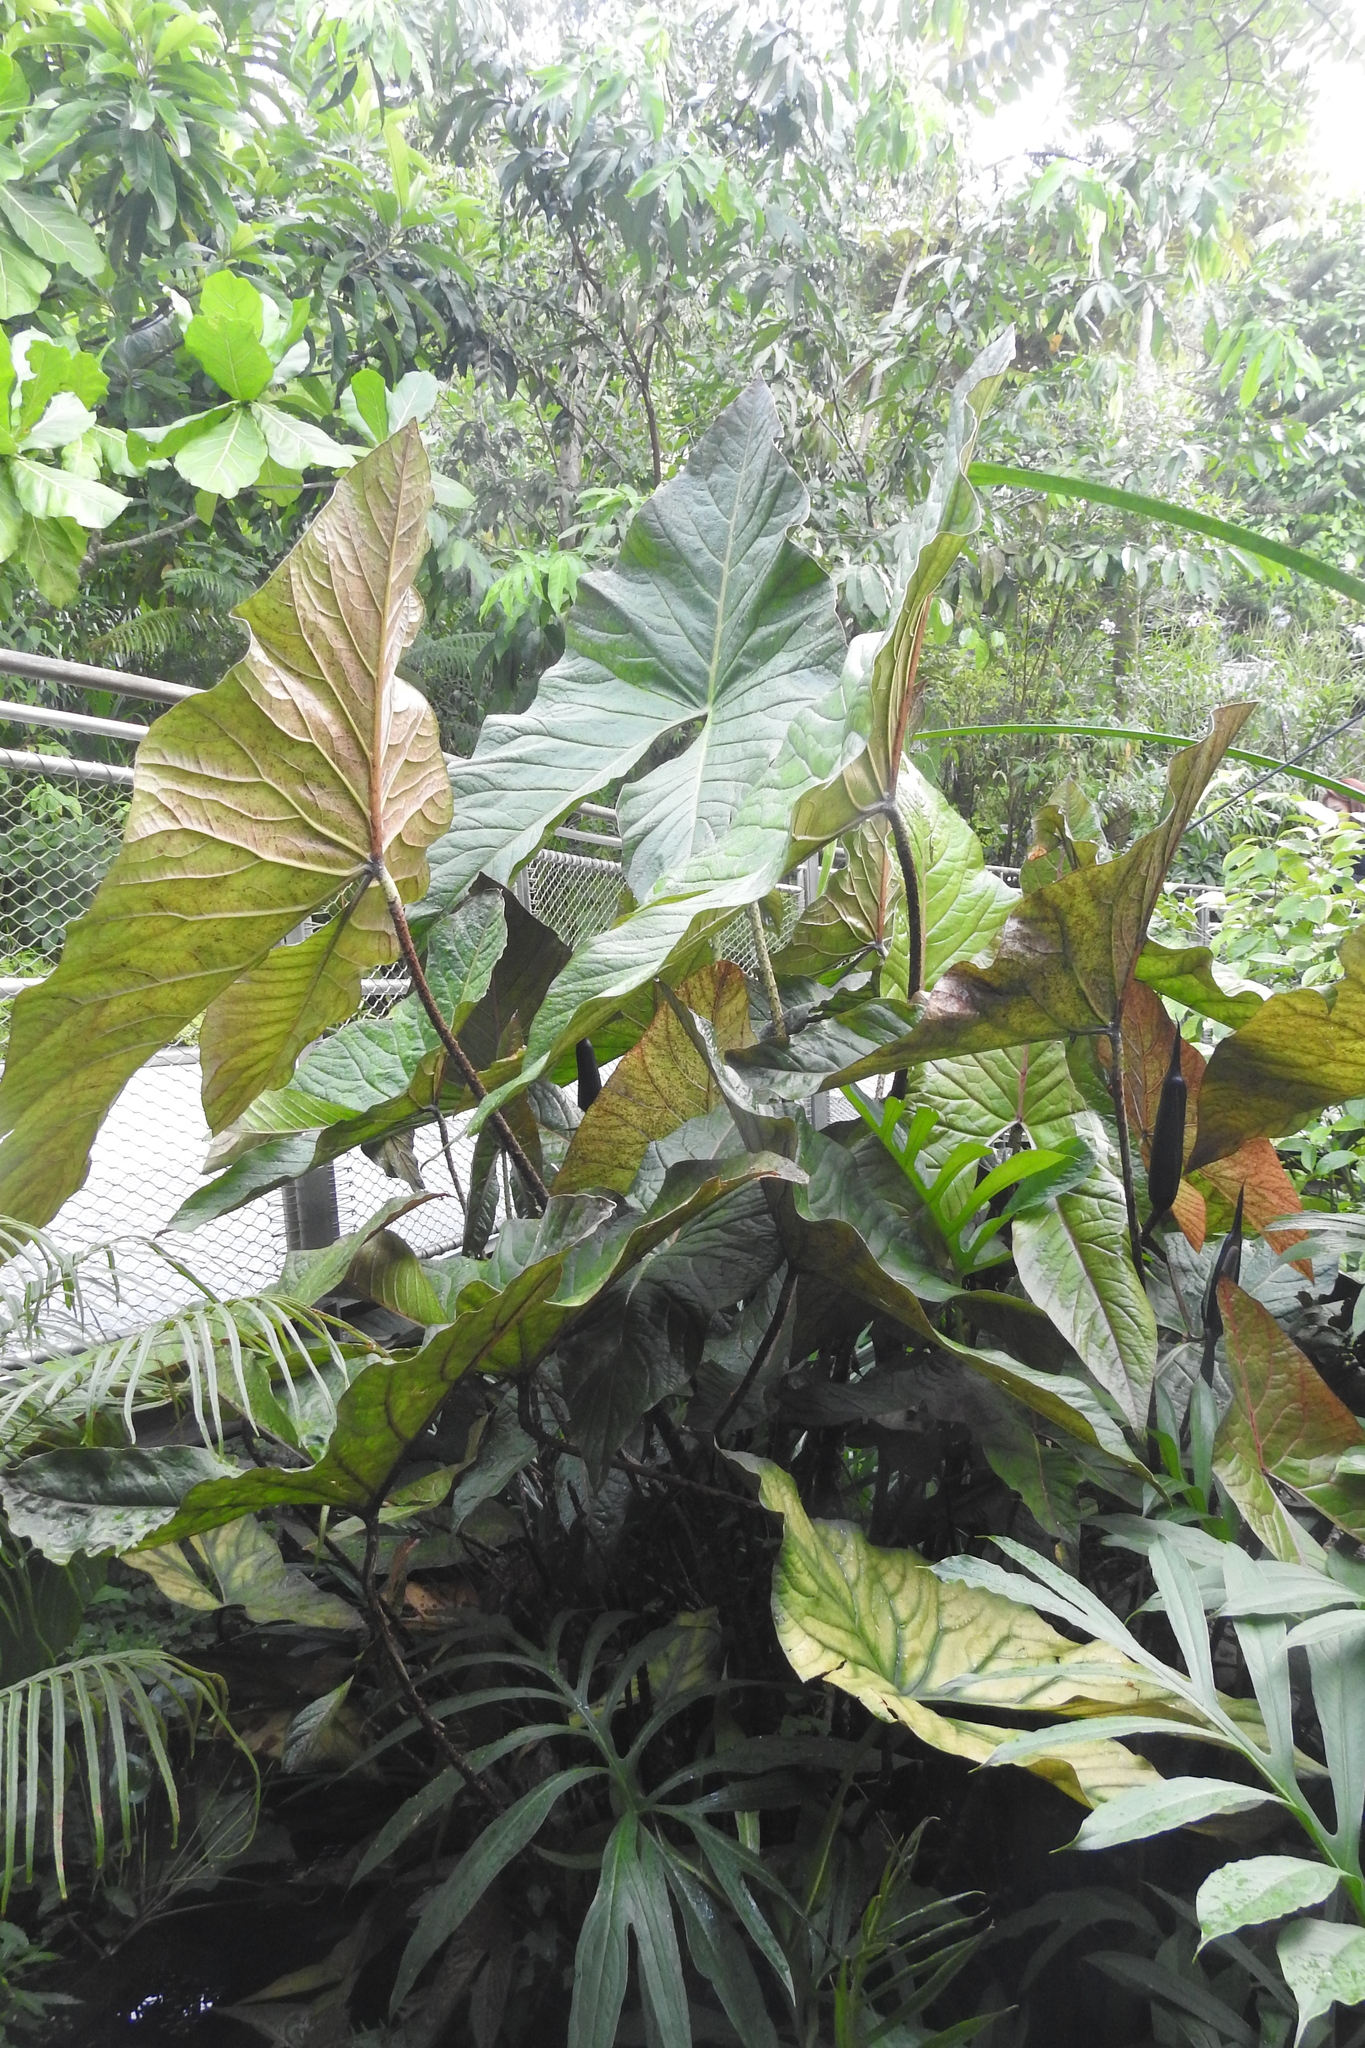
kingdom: Plantae
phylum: Tracheophyta
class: Liliopsida
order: Alismatales
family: Araceae
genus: Cyrtosperma
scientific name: Cyrtosperma johnstonii
